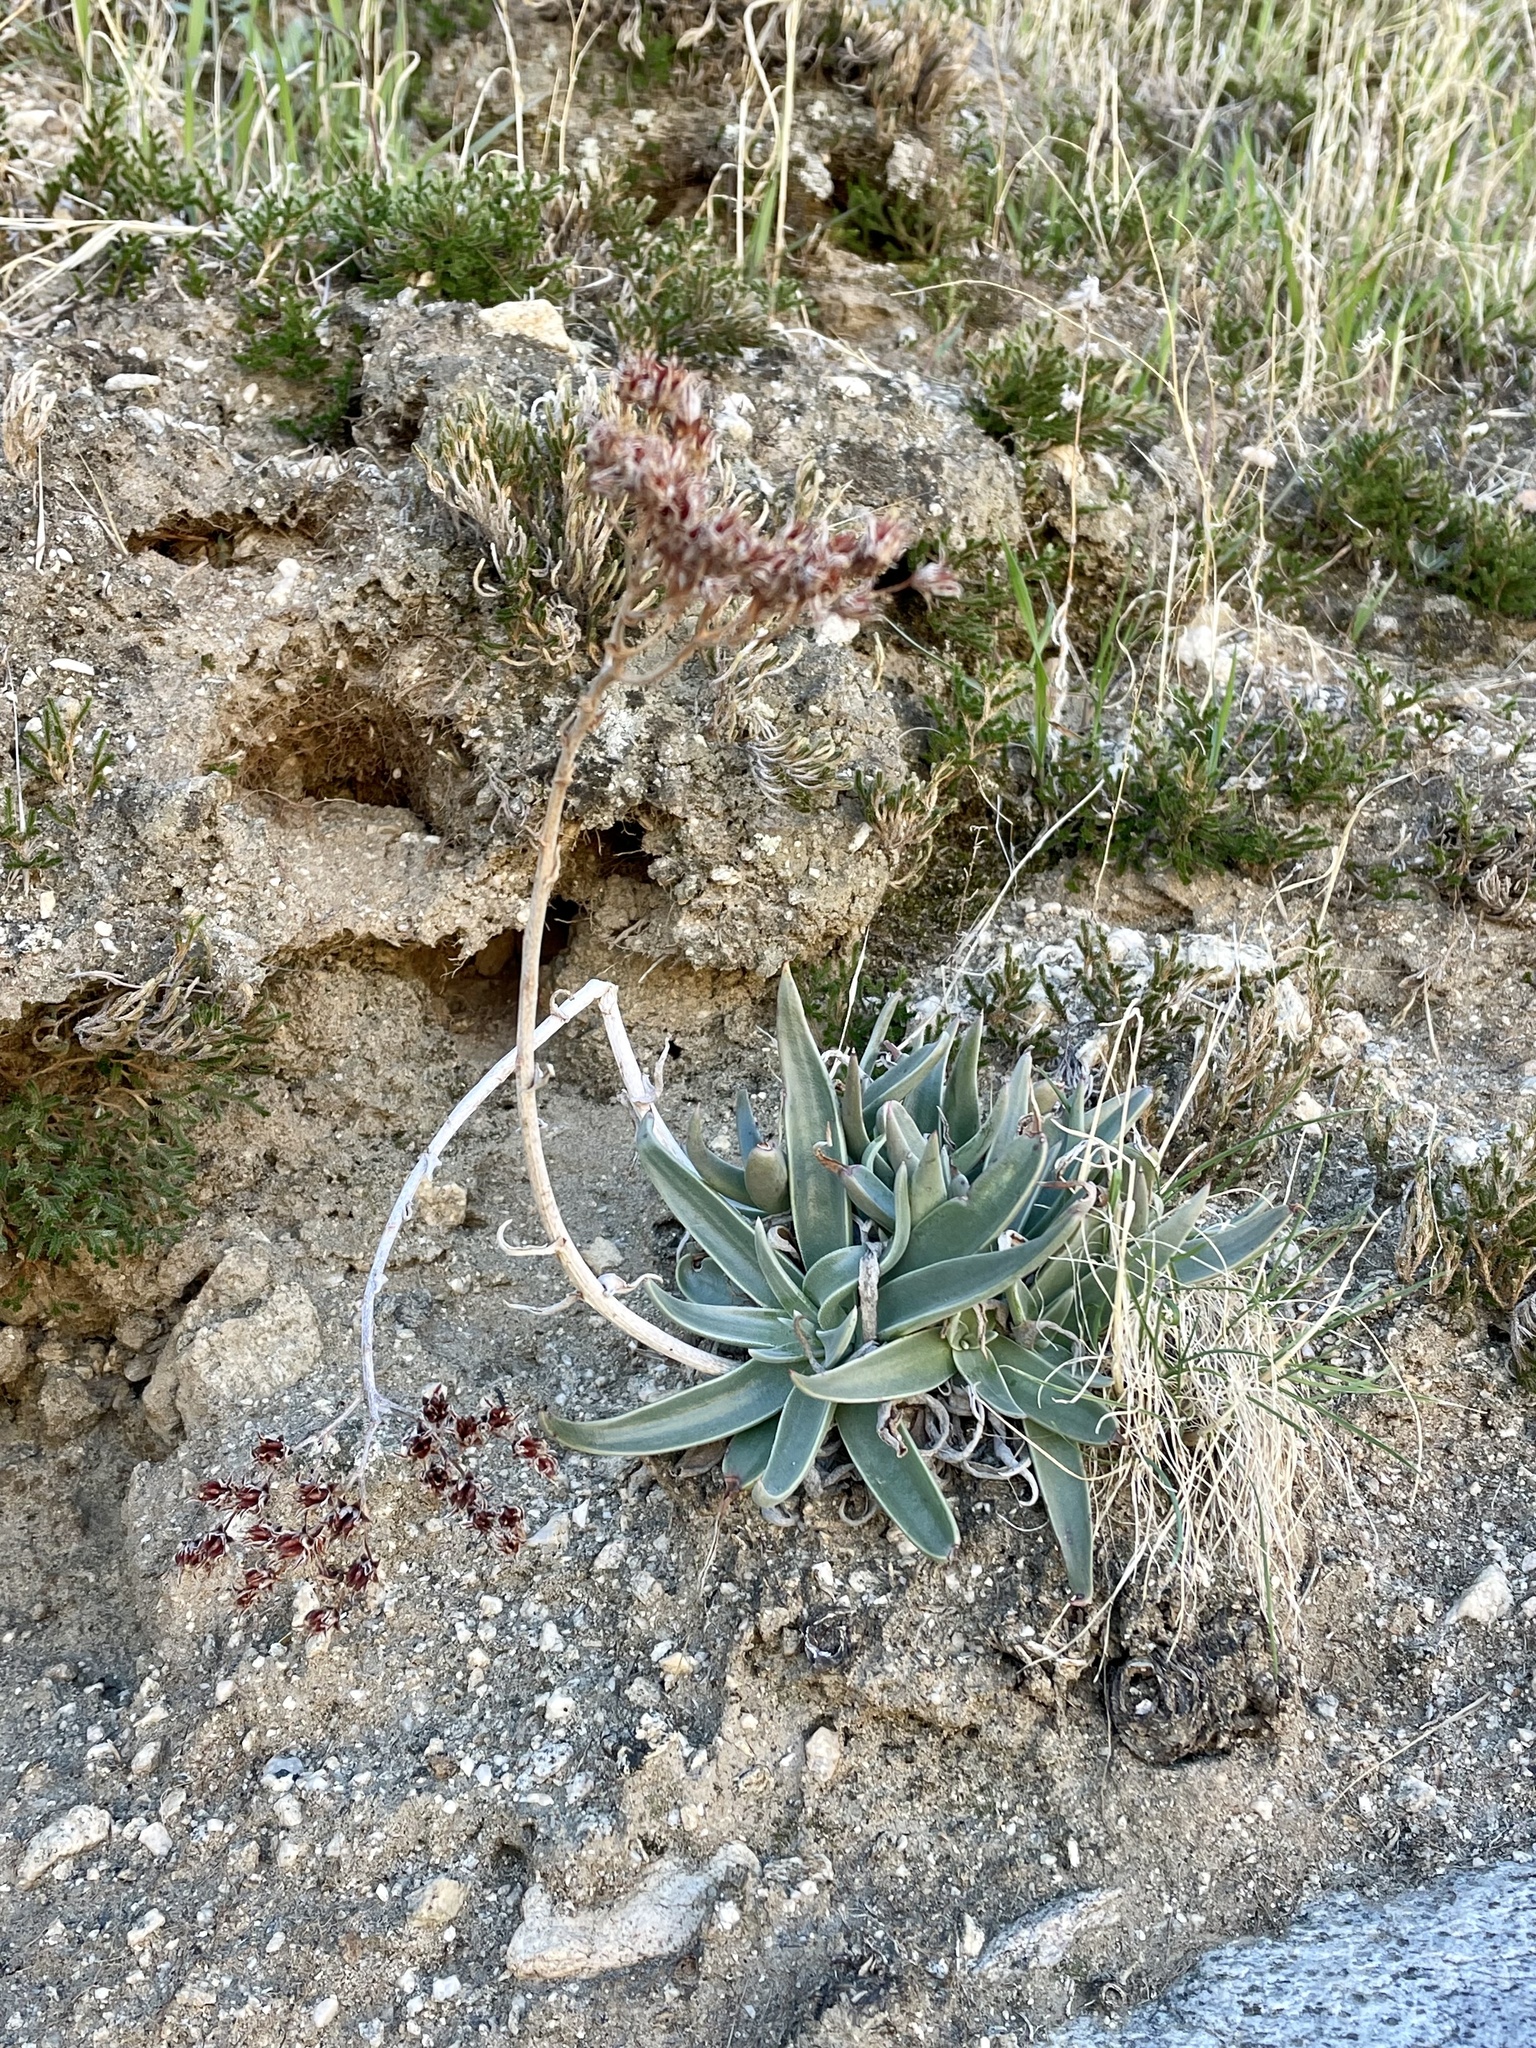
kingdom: Plantae
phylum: Tracheophyta
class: Magnoliopsida
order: Saxifragales
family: Crassulaceae
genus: Dudleya
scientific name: Dudleya saxosa
